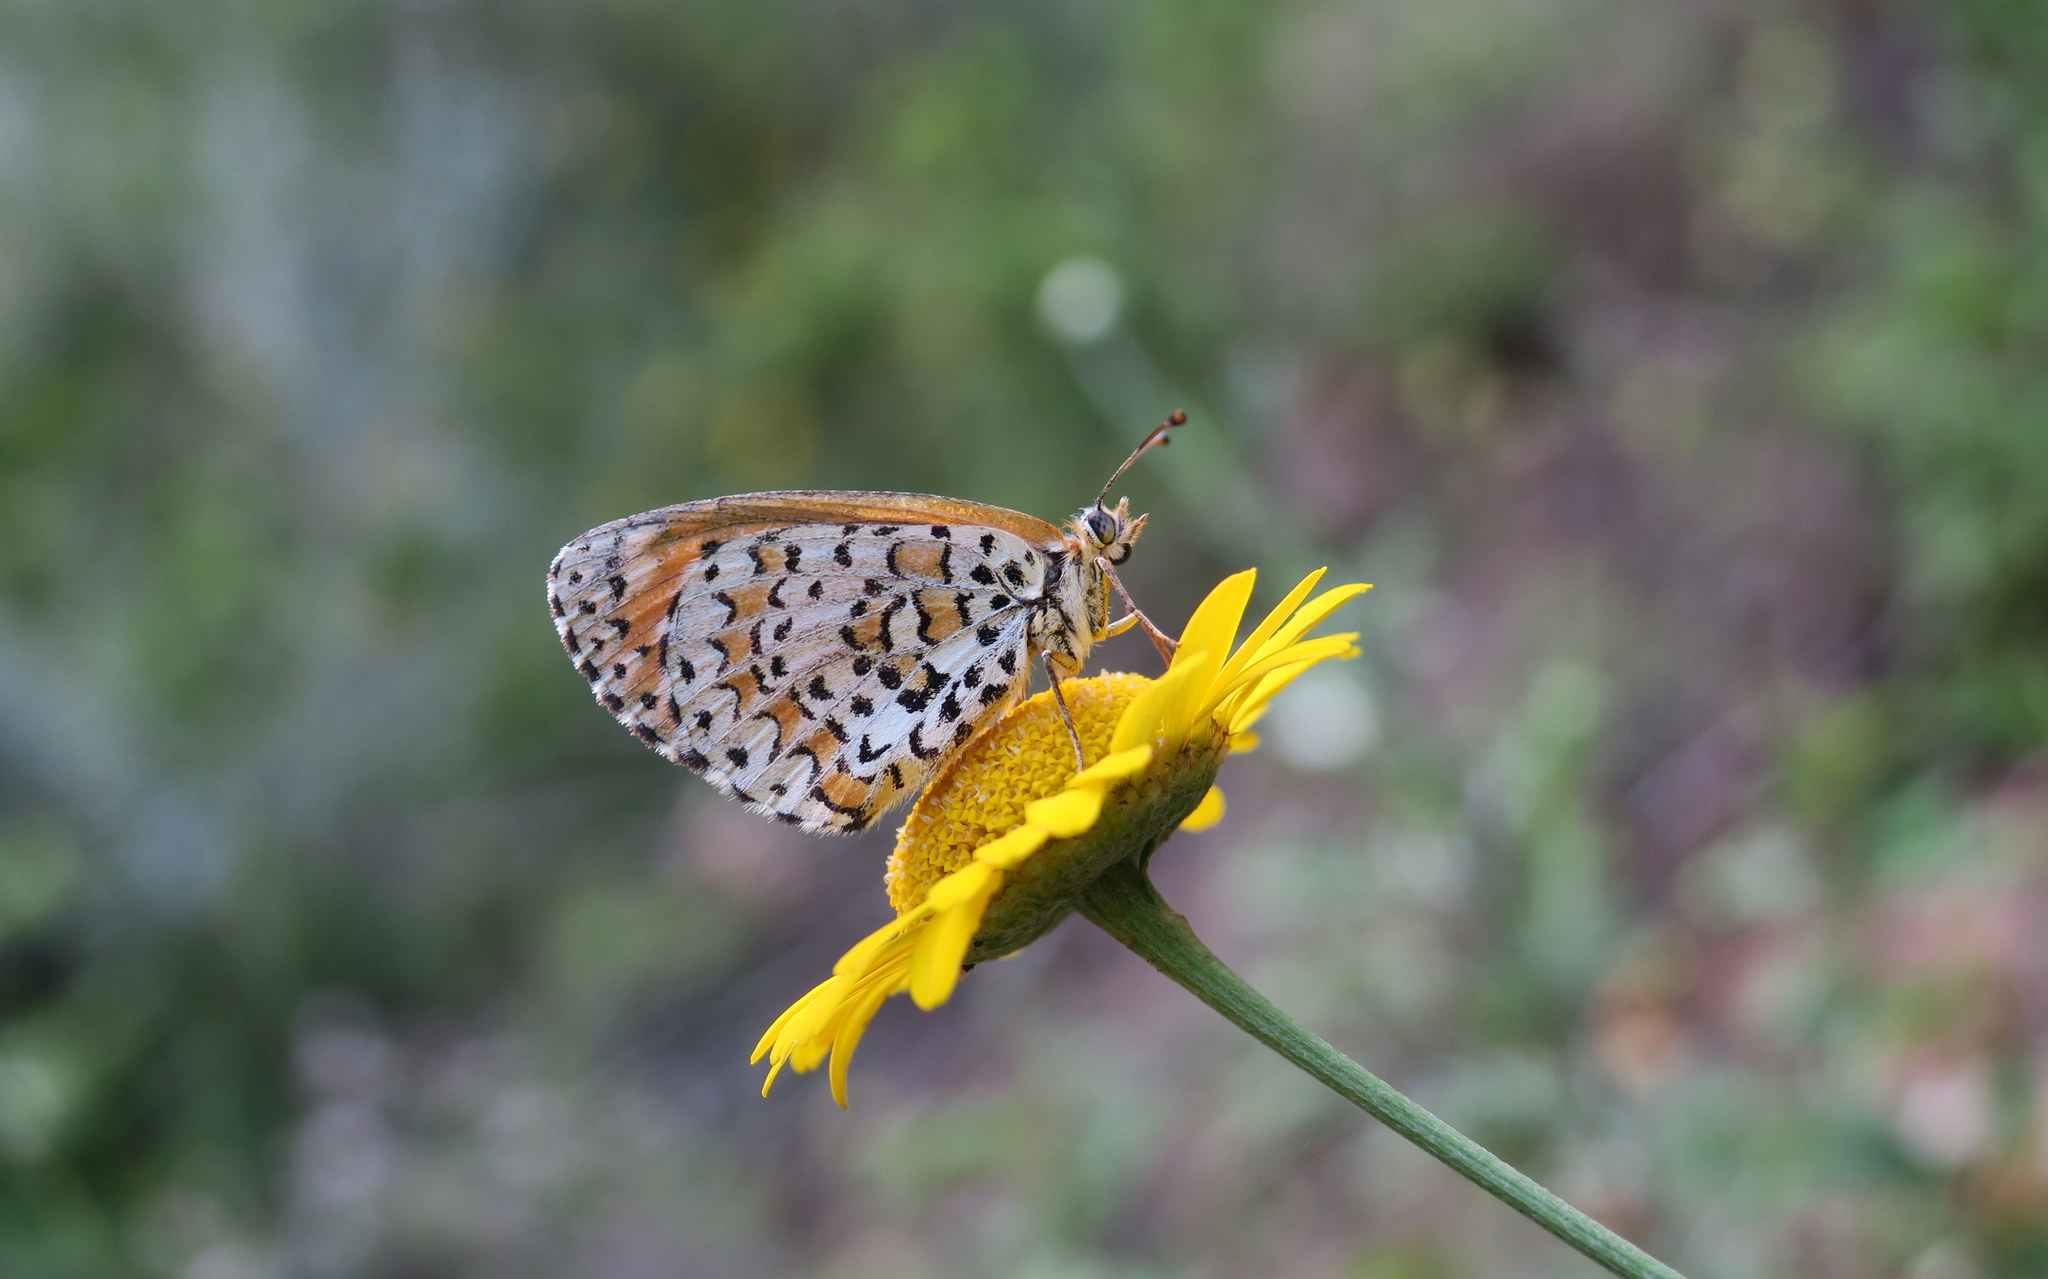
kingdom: Animalia
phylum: Arthropoda
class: Insecta
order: Lepidoptera
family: Nymphalidae
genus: Melitaea
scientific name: Melitaea trivia
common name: Lesser spotted fritillary
